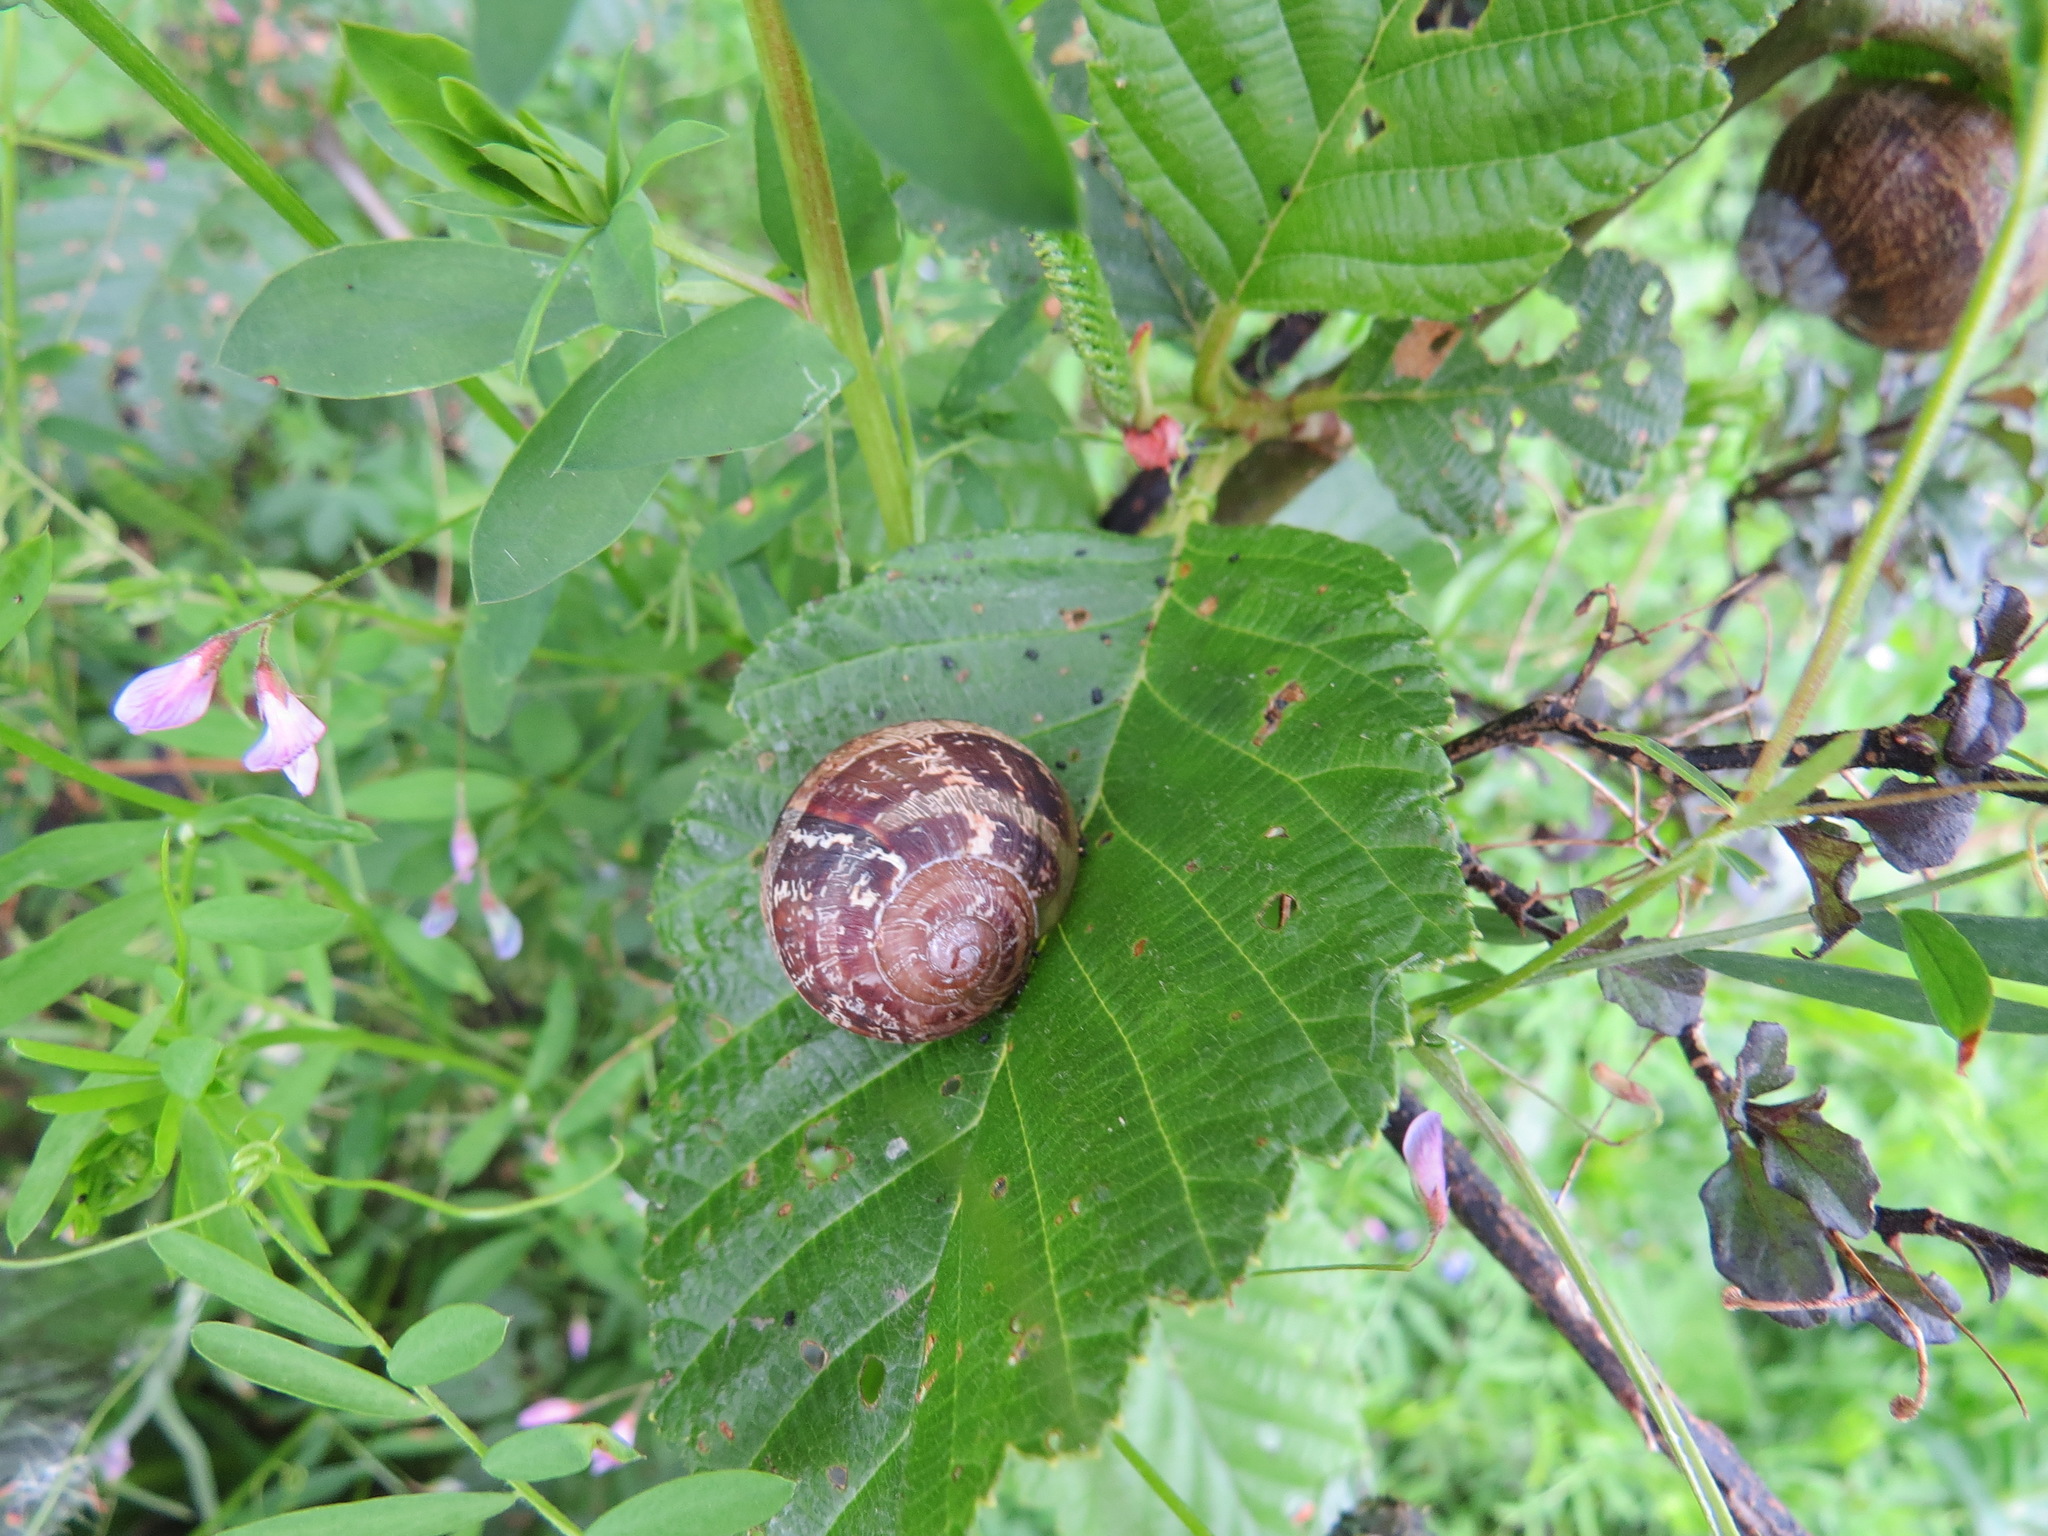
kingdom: Animalia
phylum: Mollusca
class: Gastropoda
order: Stylommatophora
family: Helicidae
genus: Cornu
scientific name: Cornu aspersum
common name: Brown garden snail
